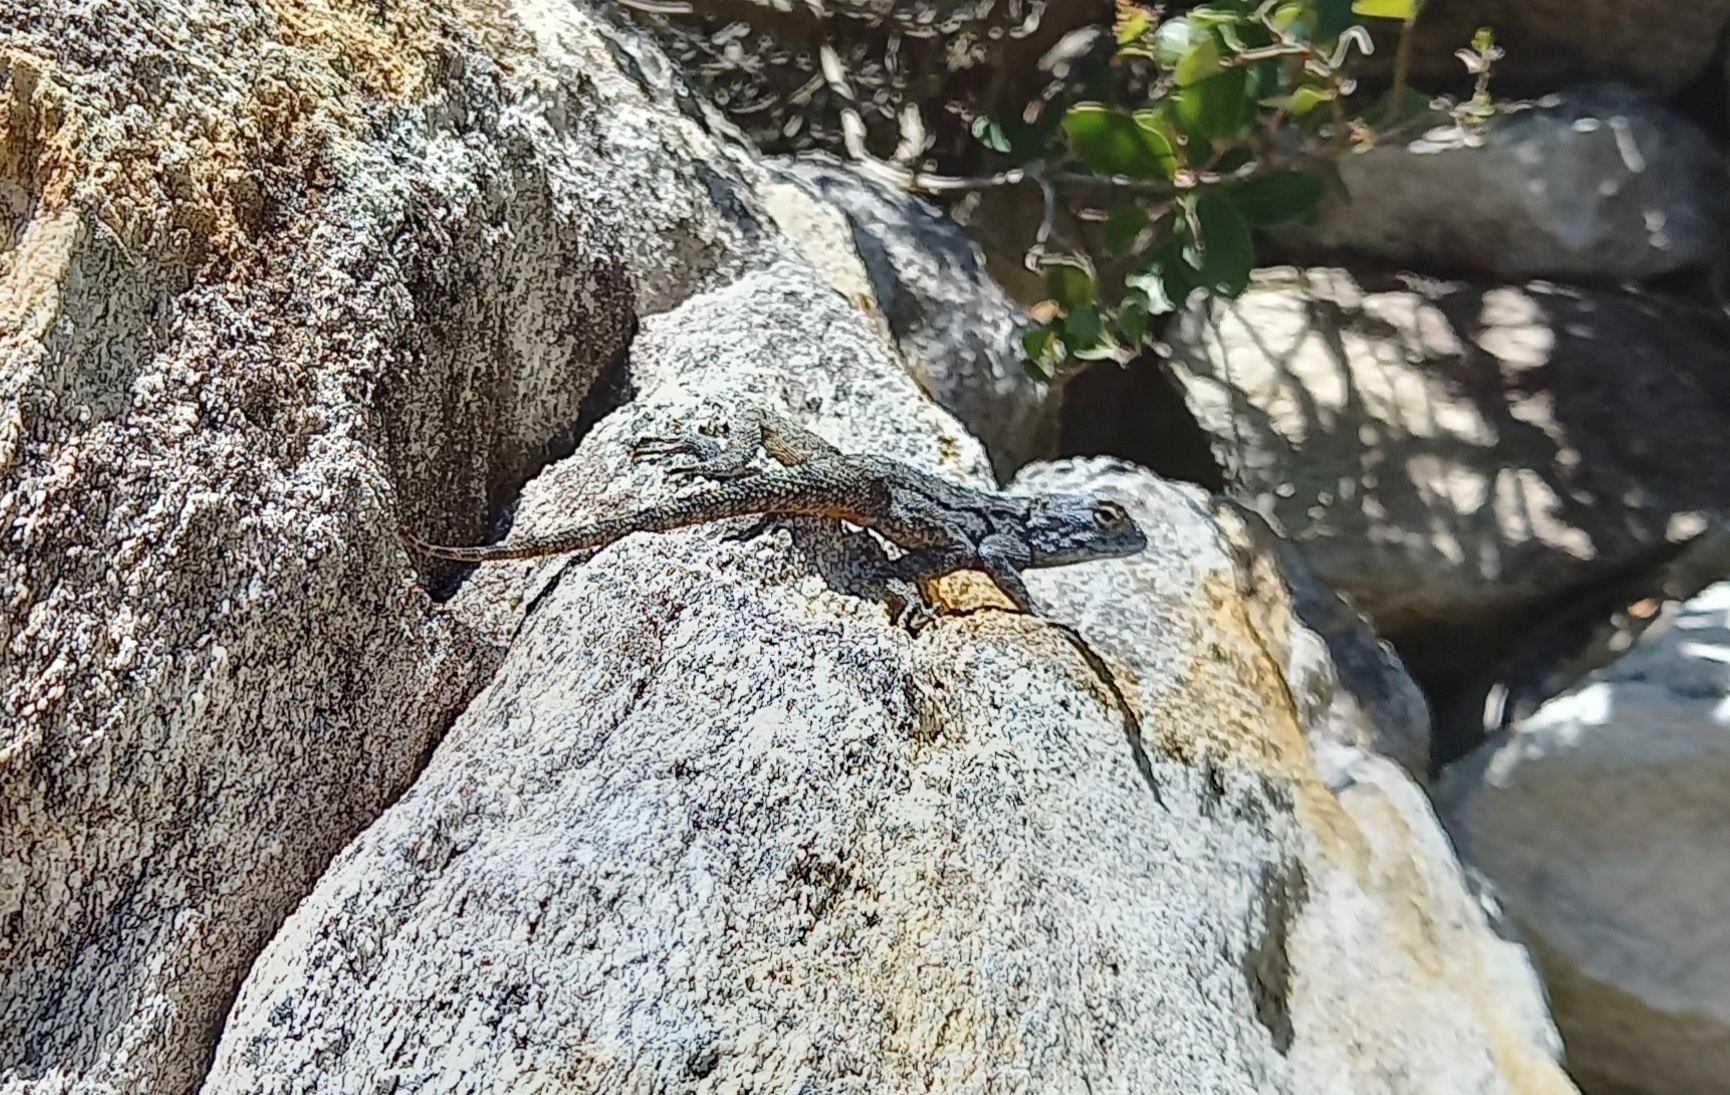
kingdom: Animalia
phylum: Chordata
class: Squamata
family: Agamidae
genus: Agama
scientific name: Agama atra
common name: Southern african rock agama
